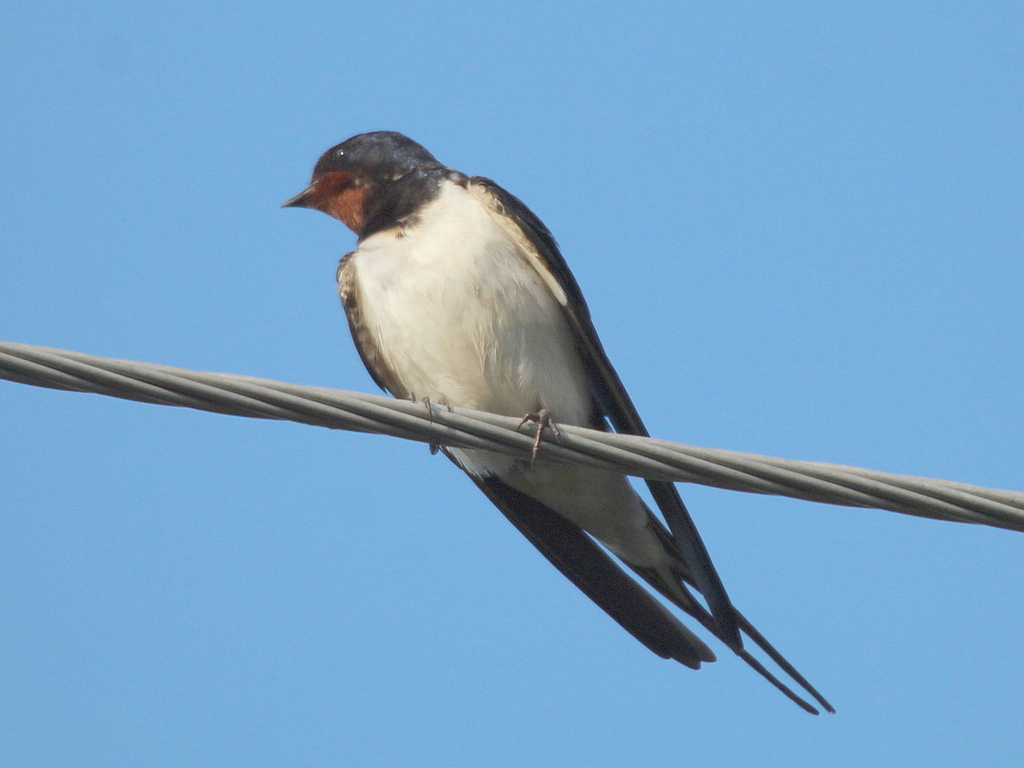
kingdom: Animalia
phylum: Chordata
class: Aves
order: Passeriformes
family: Hirundinidae
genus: Hirundo
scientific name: Hirundo rustica
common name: Barn swallow
